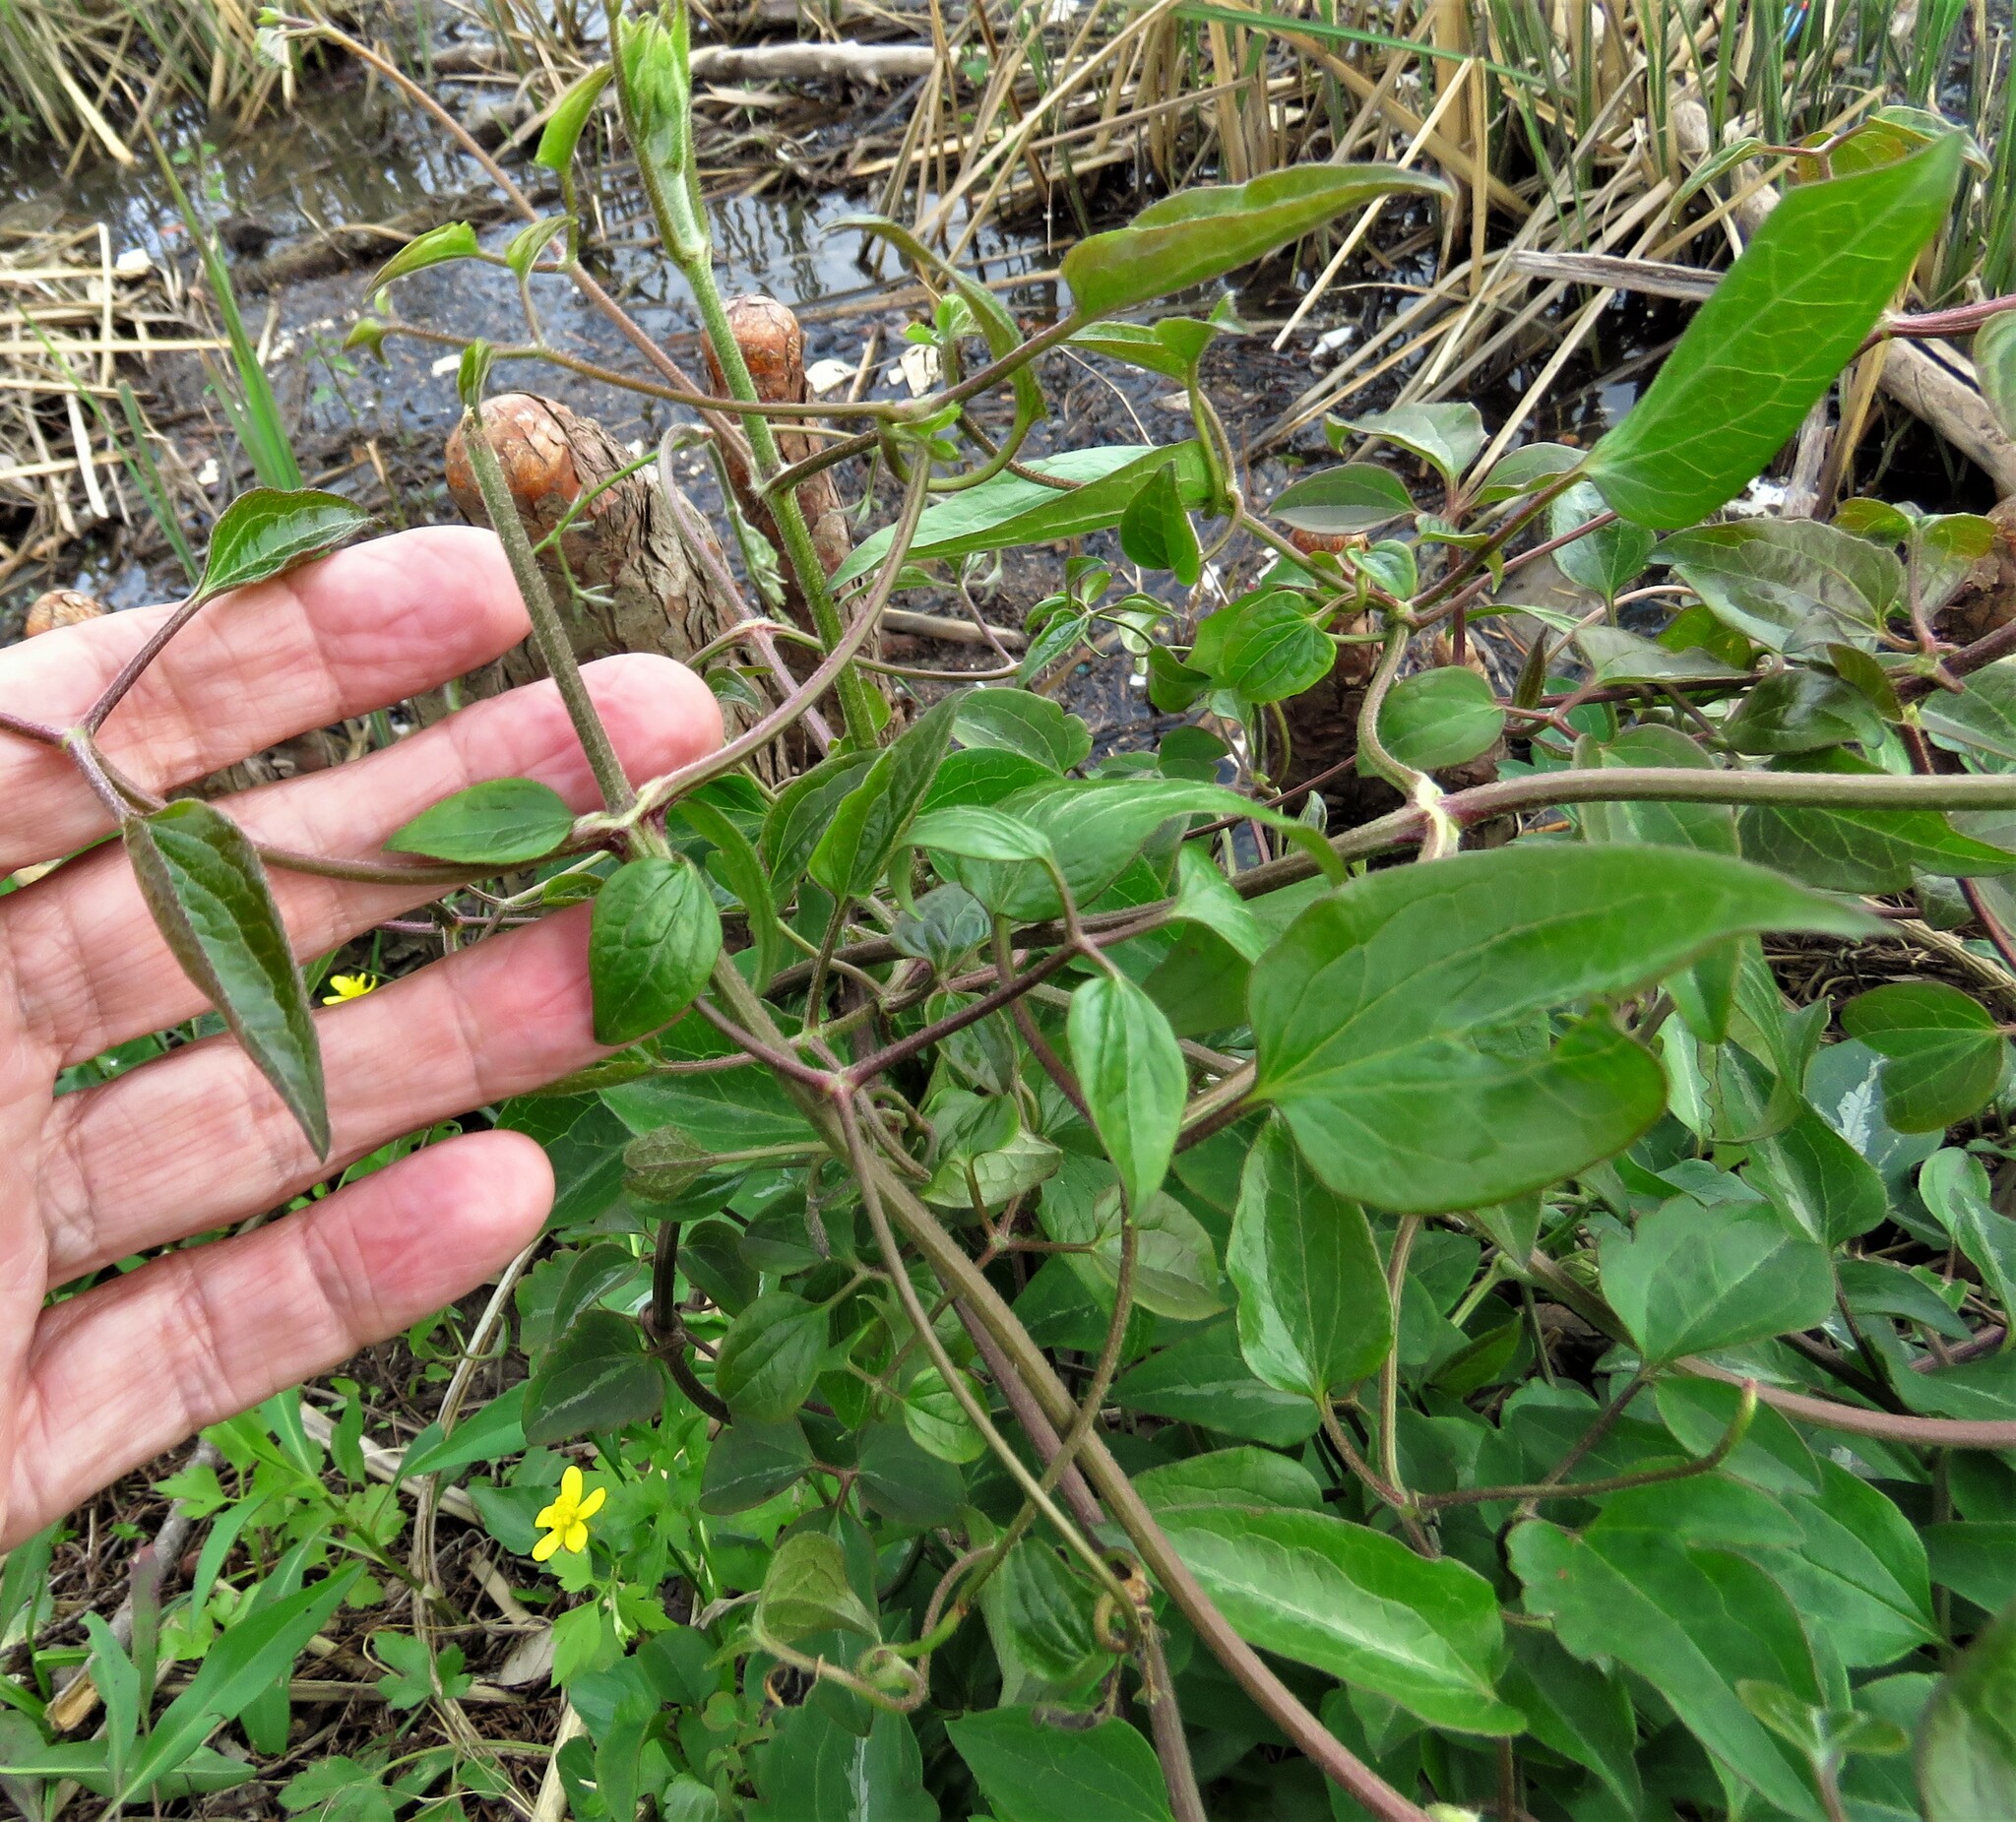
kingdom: Plantae
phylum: Tracheophyta
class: Magnoliopsida
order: Ranunculales
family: Ranunculaceae
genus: Clematis
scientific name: Clematis terniflora
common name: Sweet autumn clematis
